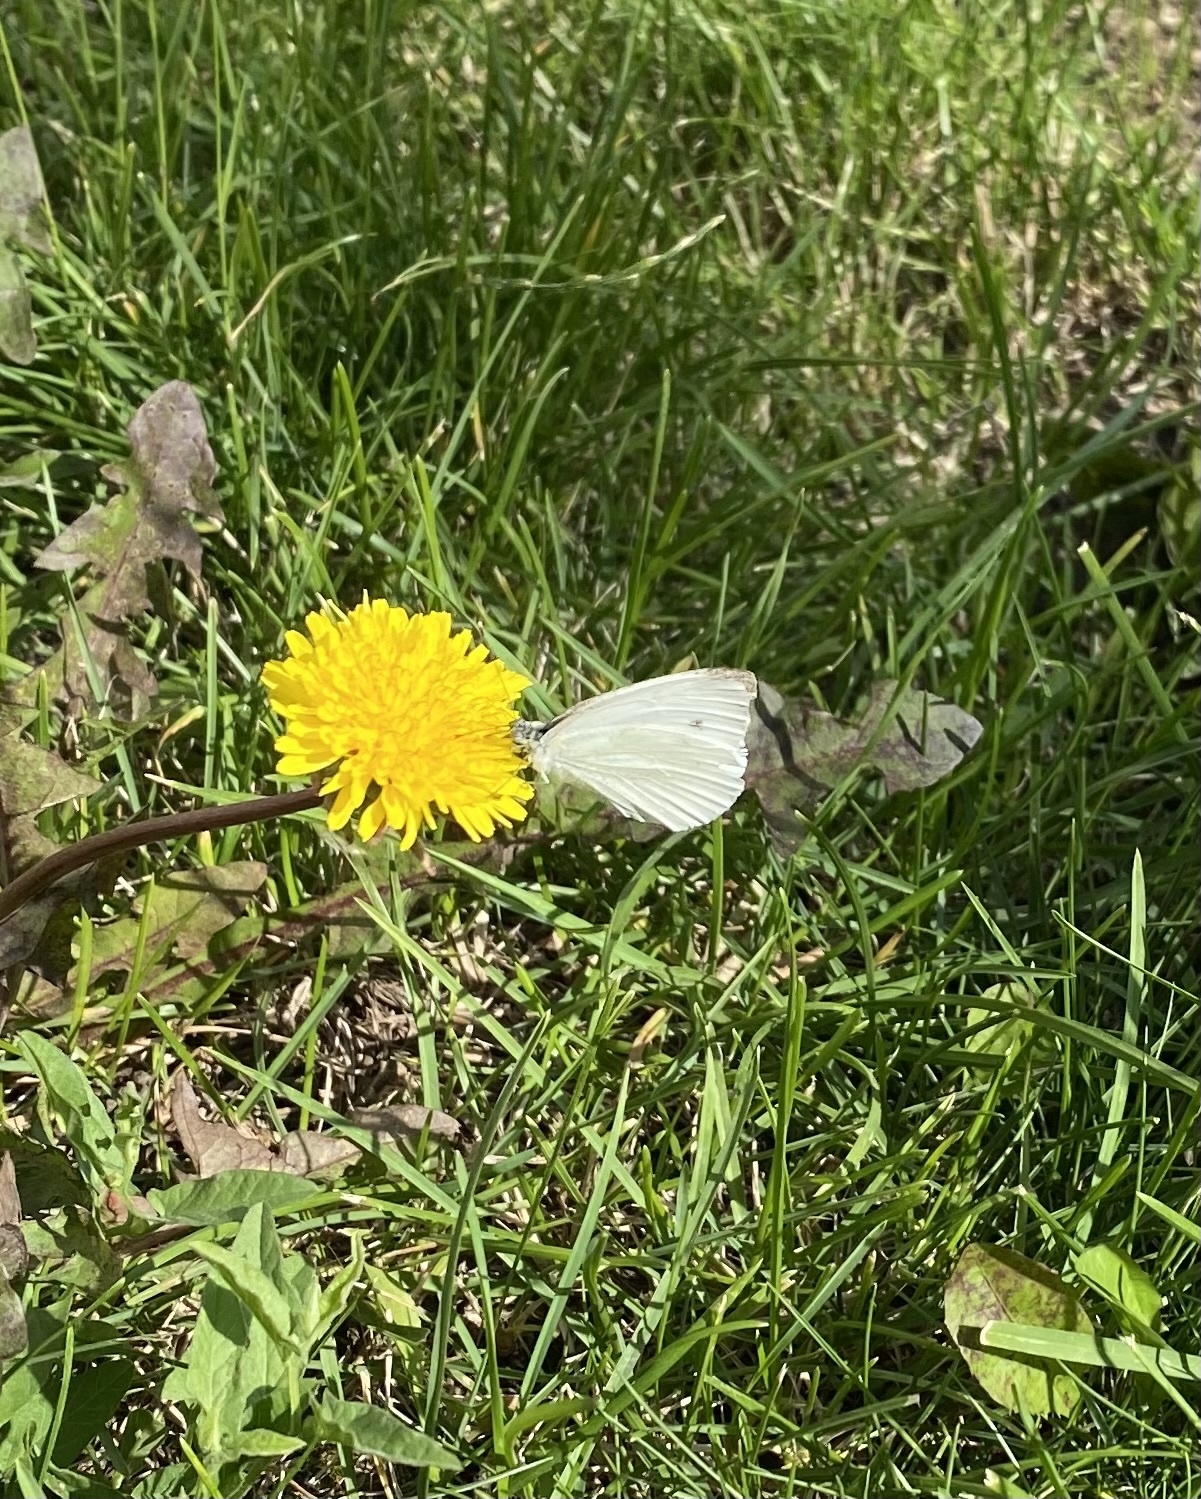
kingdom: Animalia
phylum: Arthropoda
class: Insecta
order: Lepidoptera
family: Pieridae
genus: Pieris
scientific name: Pieris rapae
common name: Small white
